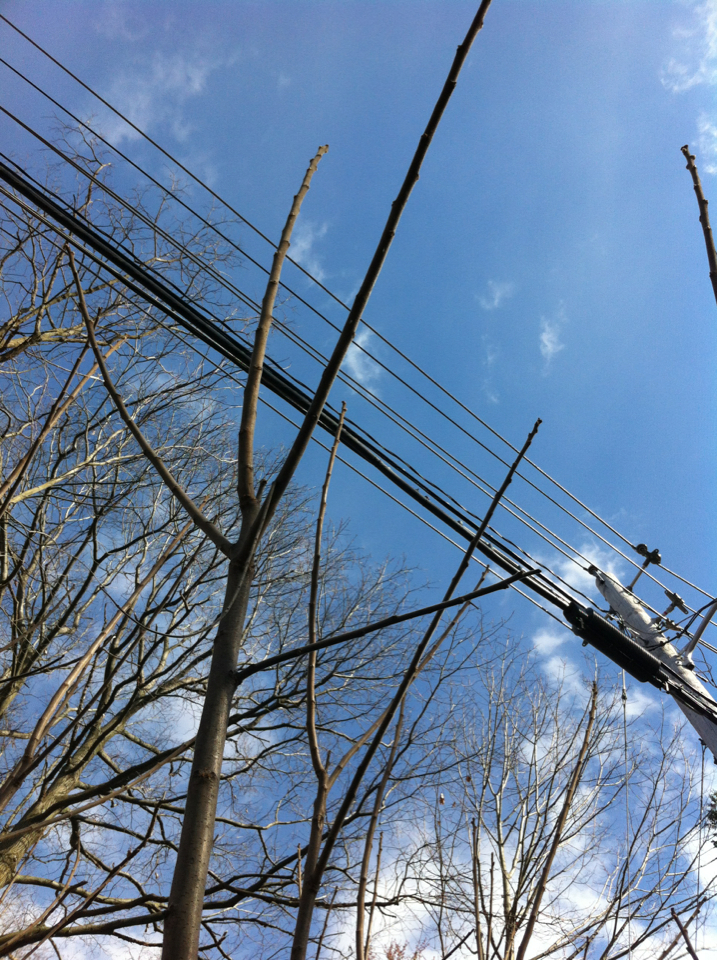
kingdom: Plantae
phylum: Tracheophyta
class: Magnoliopsida
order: Sapindales
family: Anacardiaceae
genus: Rhus
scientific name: Rhus typhina
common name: Staghorn sumac
